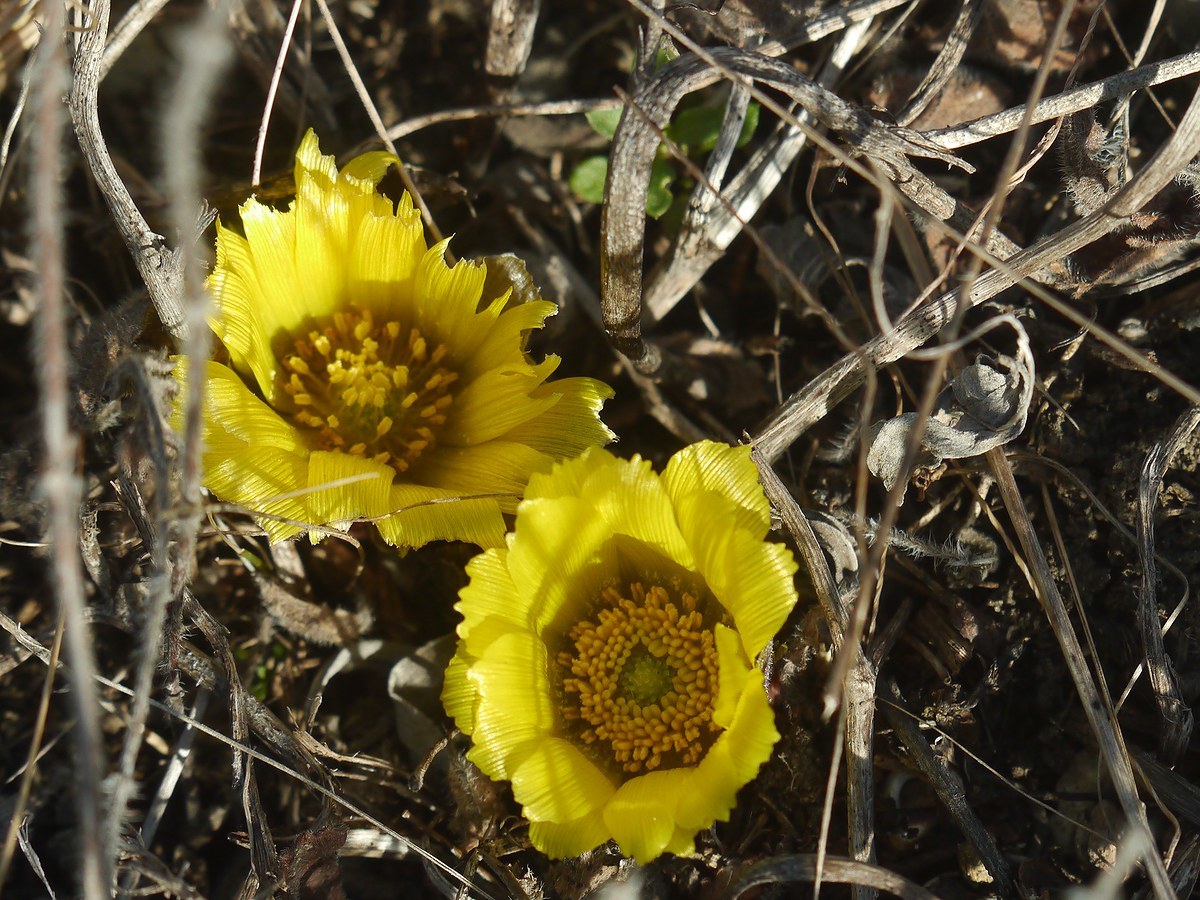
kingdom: Plantae
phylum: Tracheophyta
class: Magnoliopsida
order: Ranunculales
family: Ranunculaceae
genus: Adonis
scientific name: Adonis volgensis
